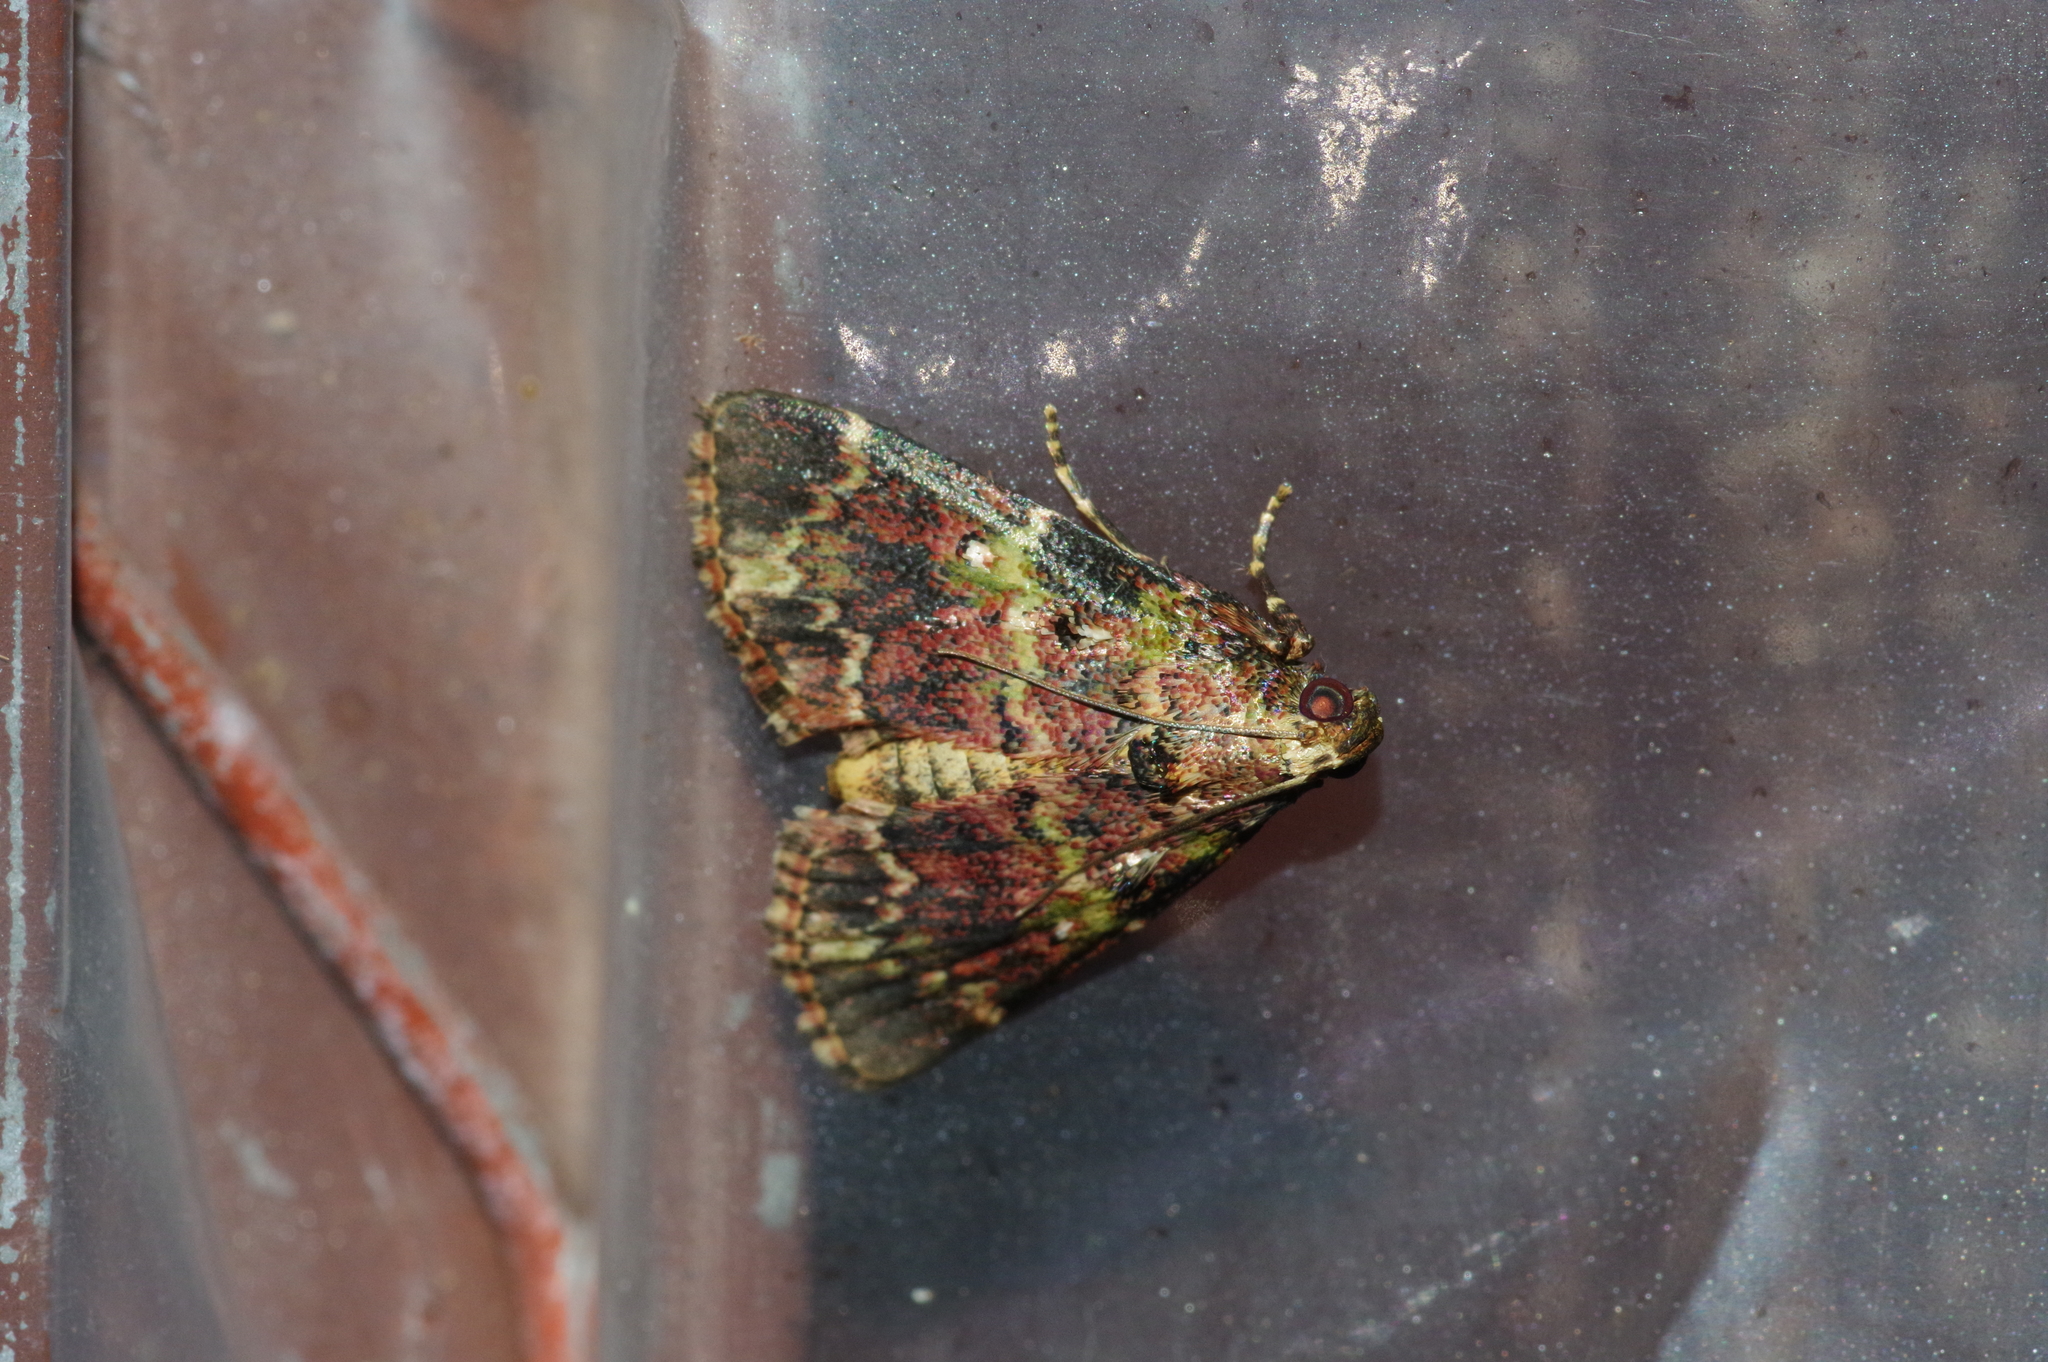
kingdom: Animalia
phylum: Arthropoda
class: Insecta
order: Lepidoptera
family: Pyralidae
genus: Orthaga
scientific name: Orthaga olivacea
